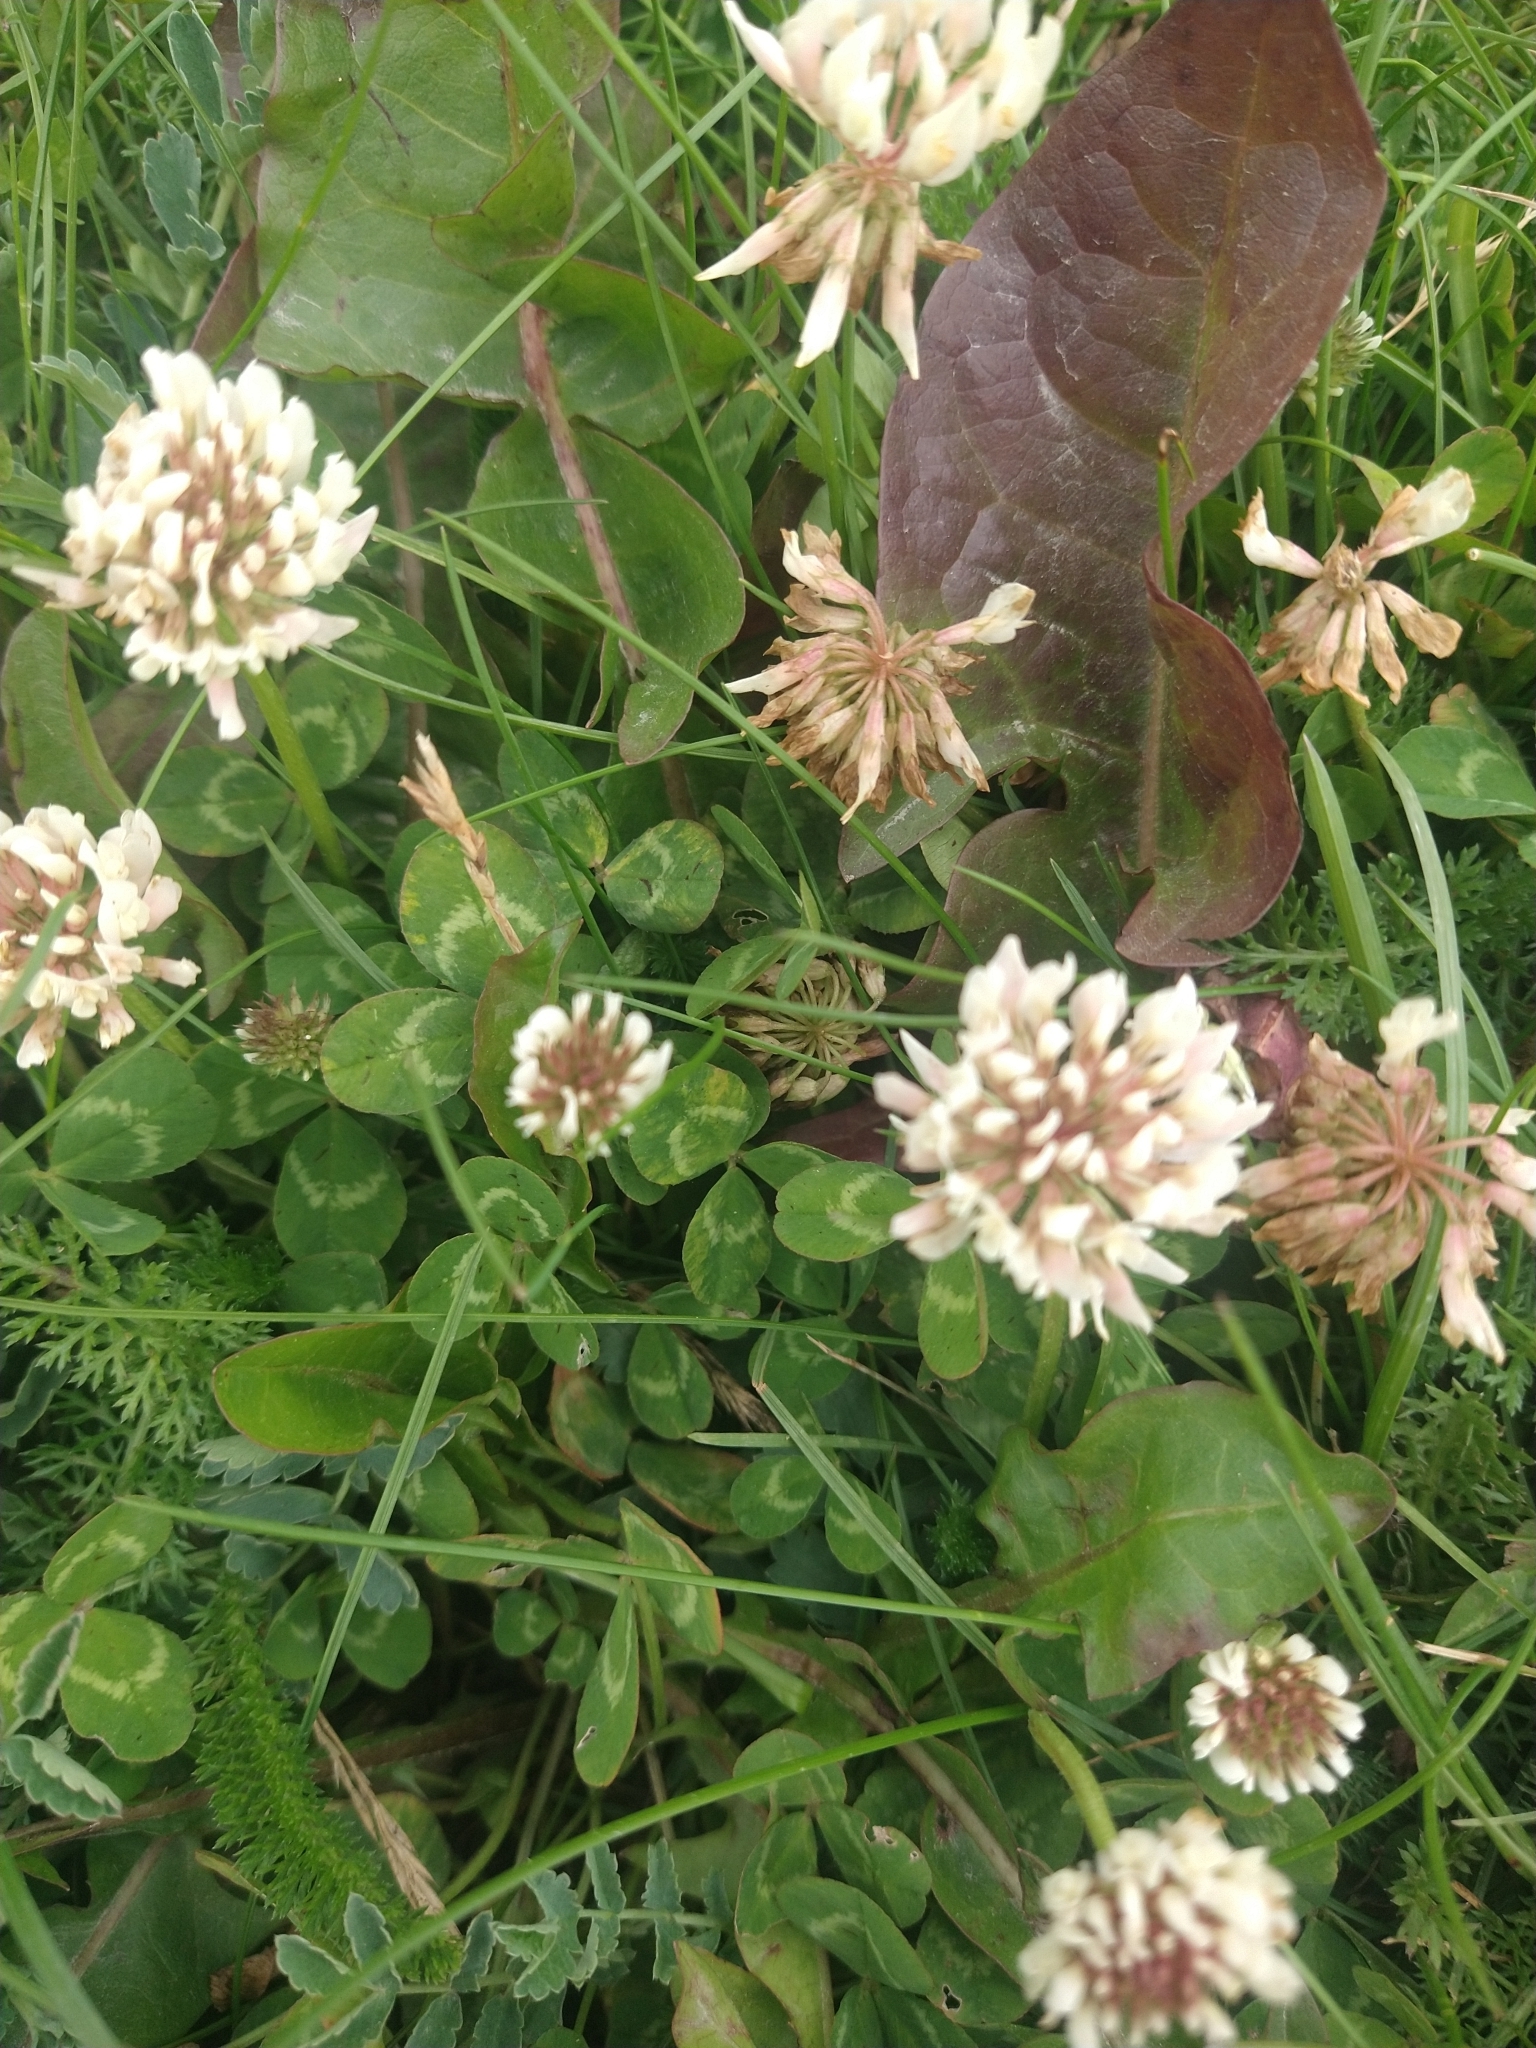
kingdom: Plantae
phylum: Tracheophyta
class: Magnoliopsida
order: Fabales
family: Fabaceae
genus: Trifolium
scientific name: Trifolium repens
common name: White clover
